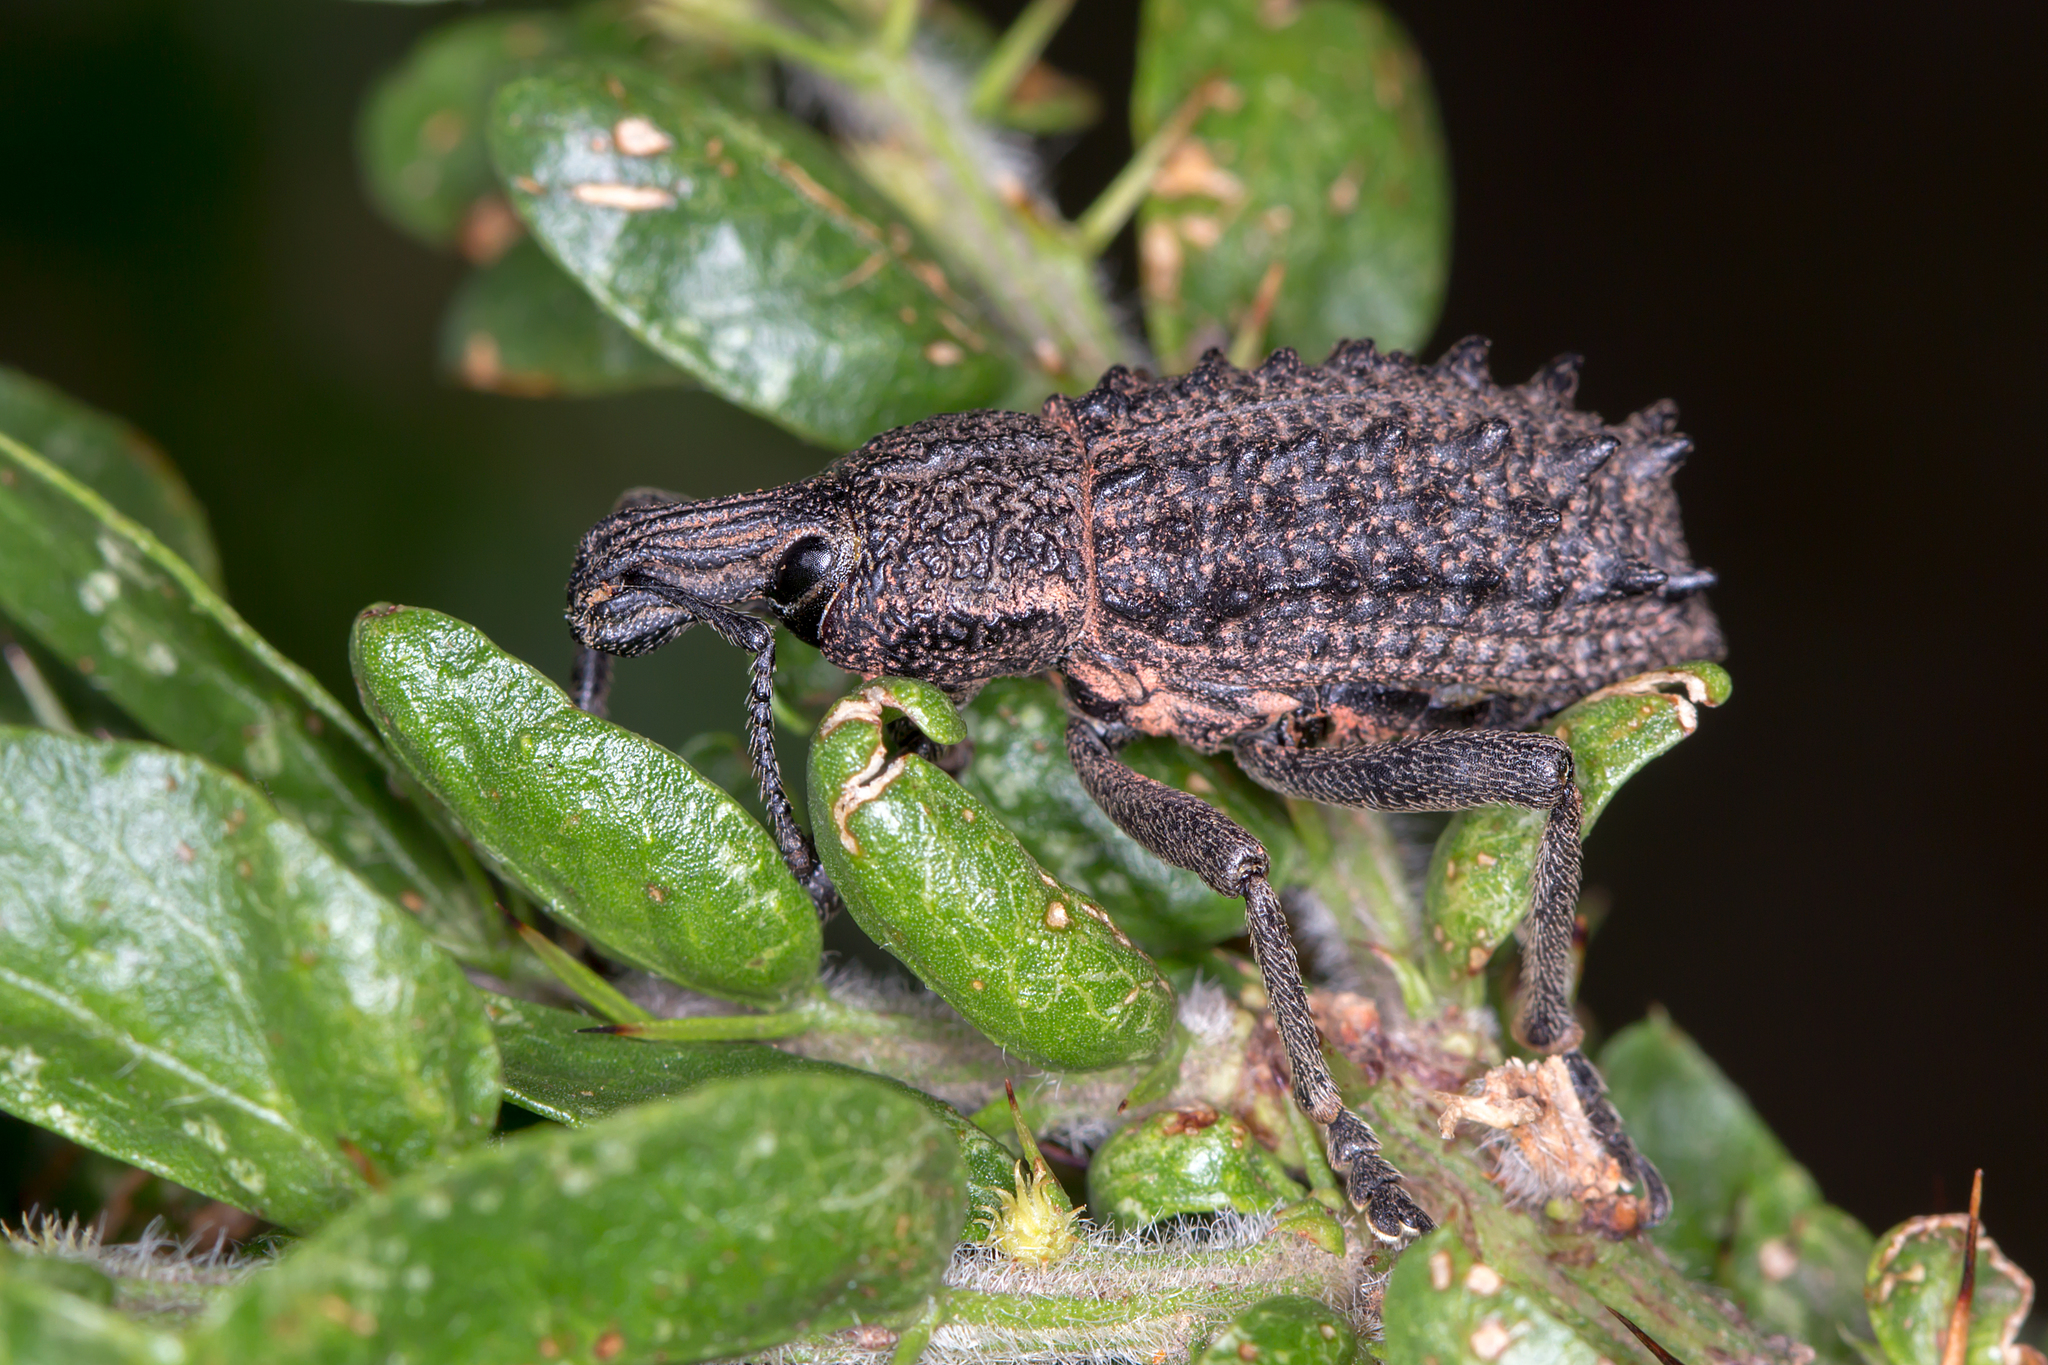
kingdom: Animalia
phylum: Arthropoda
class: Insecta
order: Coleoptera
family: Curculionidae
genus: Leptopius
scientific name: Leptopius duponti
